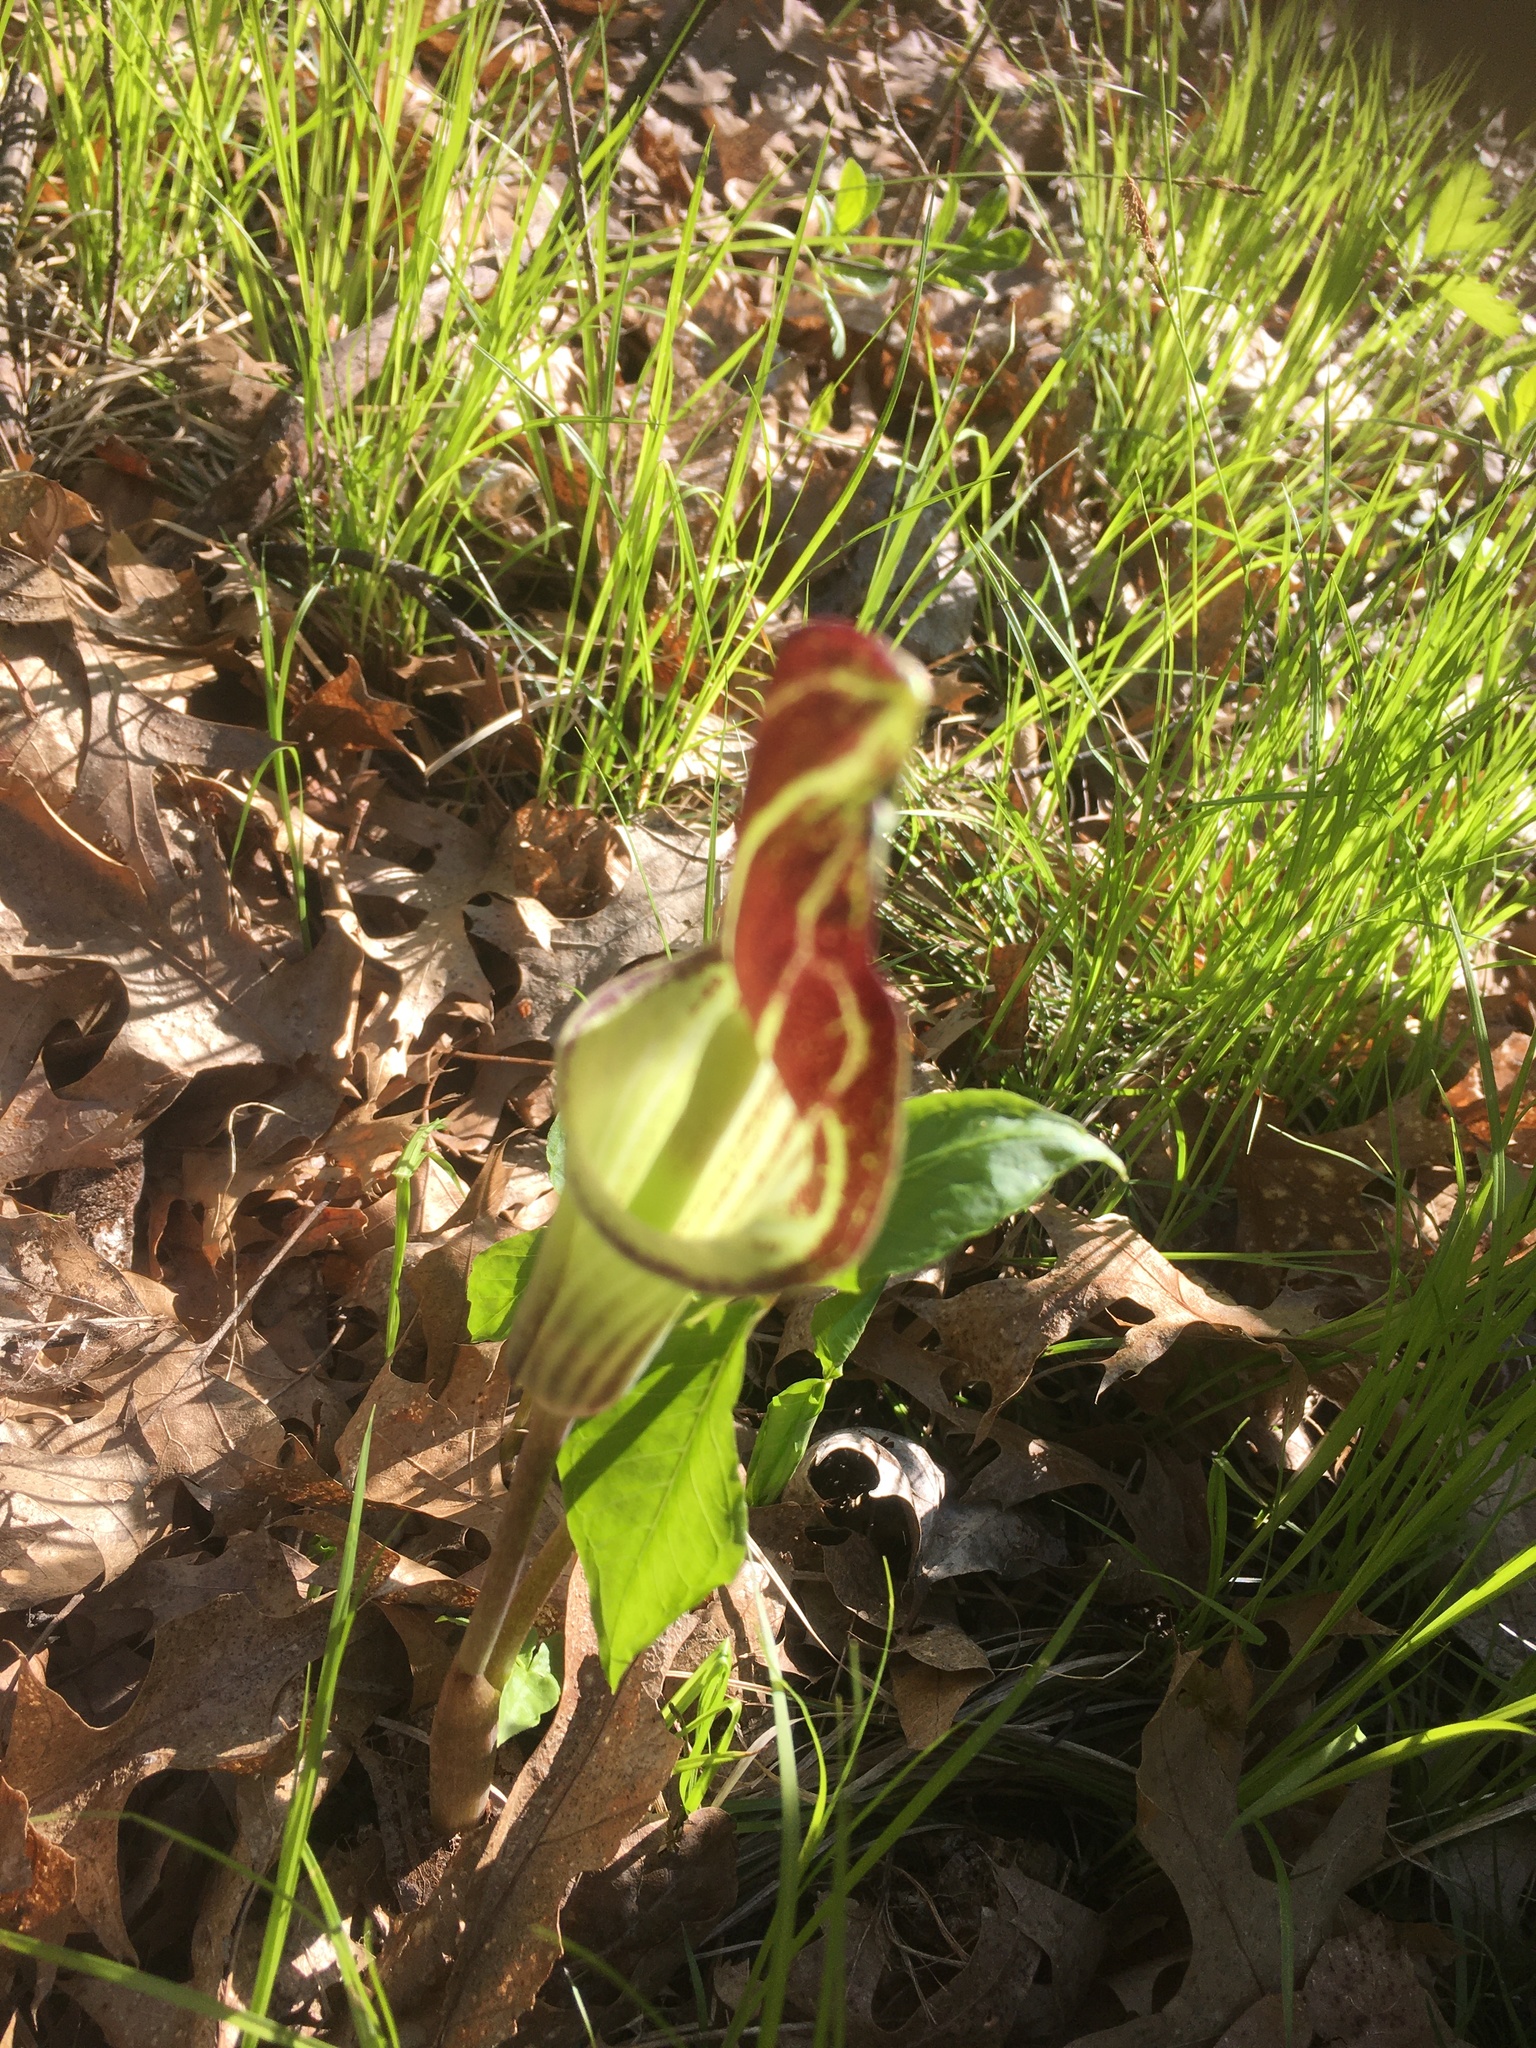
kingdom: Plantae
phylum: Tracheophyta
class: Liliopsida
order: Alismatales
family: Araceae
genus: Arisaema
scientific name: Arisaema triphyllum
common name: Jack-in-the-pulpit
